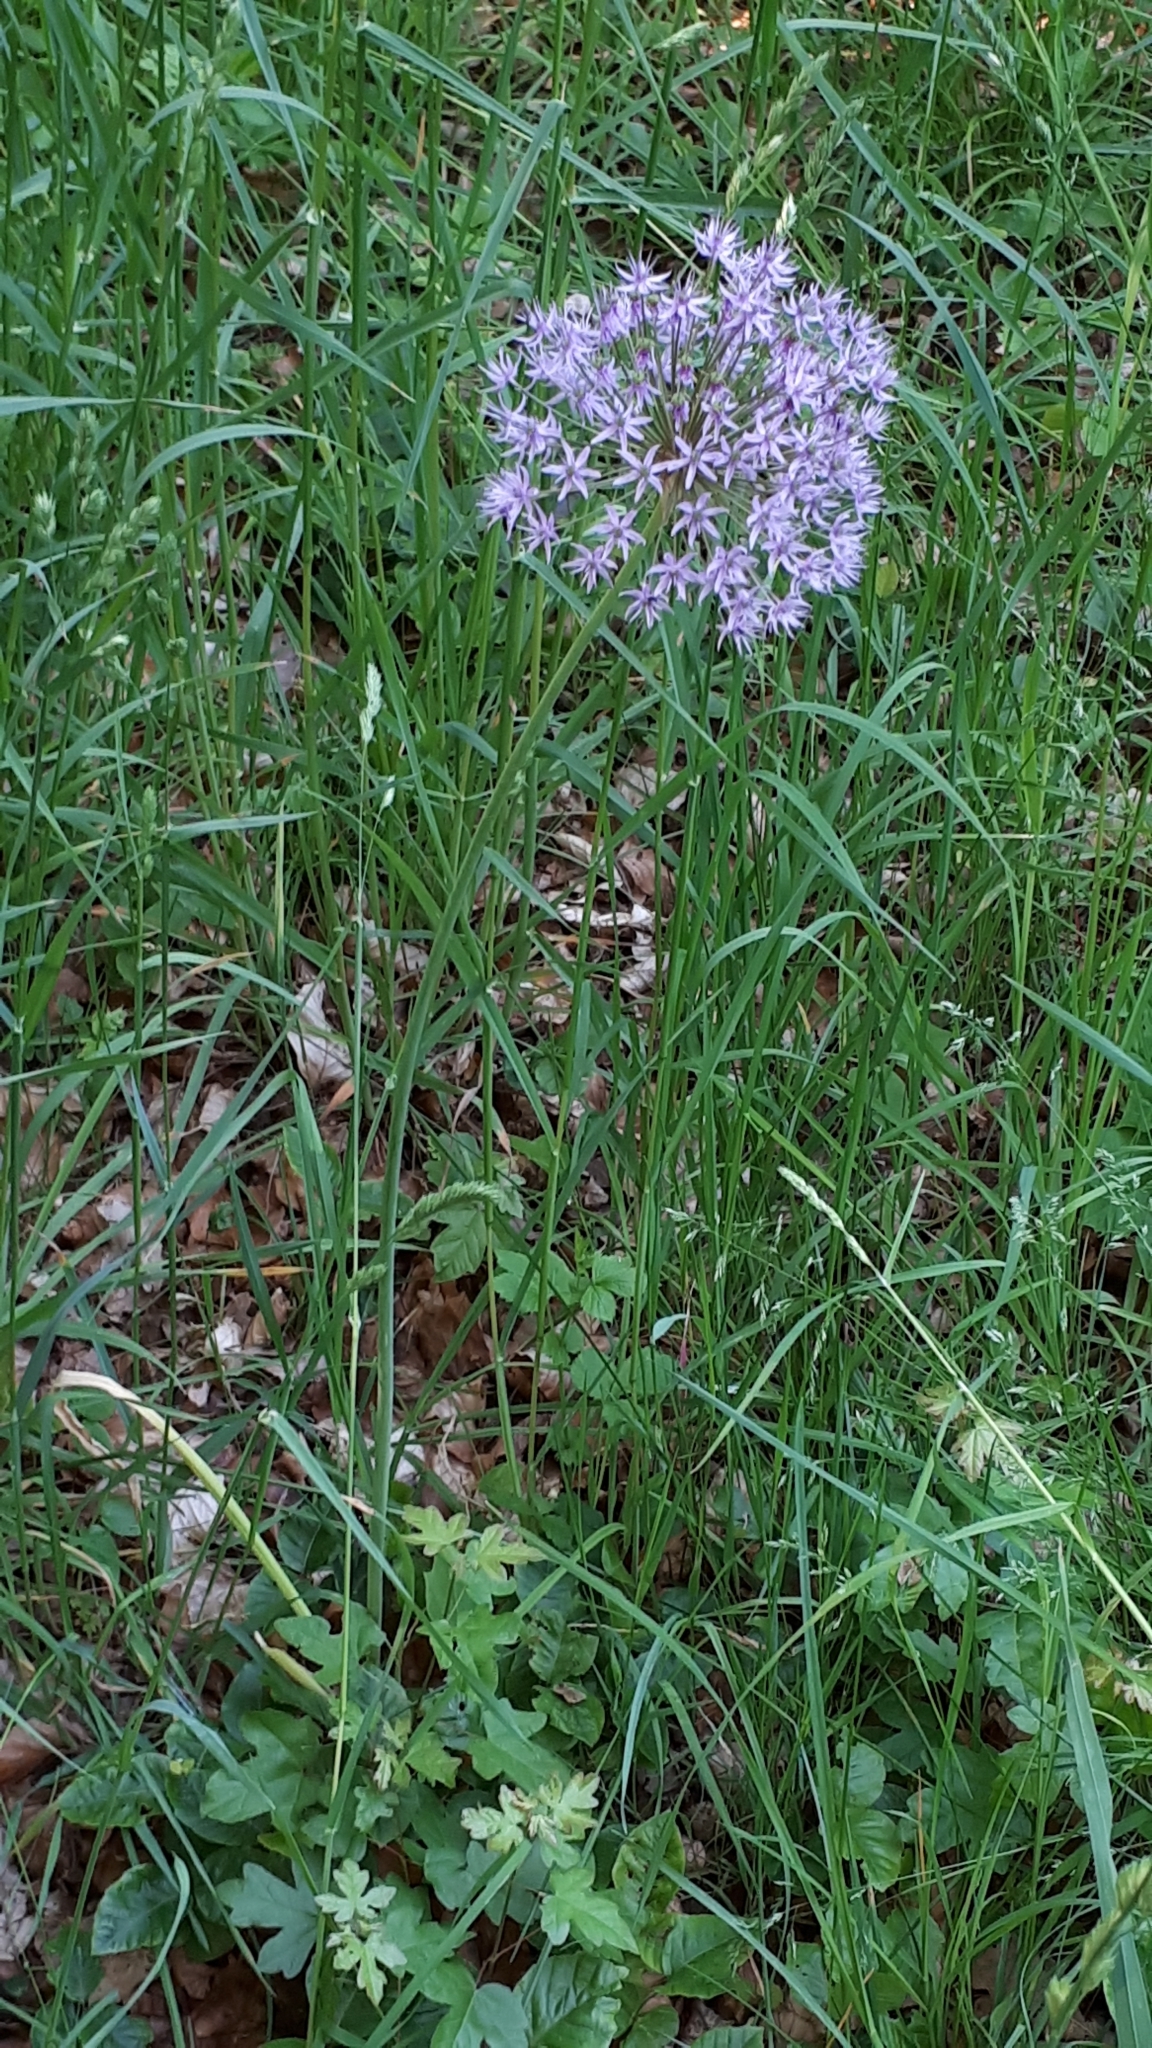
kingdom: Plantae
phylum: Tracheophyta
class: Liliopsida
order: Asparagales
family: Amaryllidaceae
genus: Allium
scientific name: Allium macleanii
